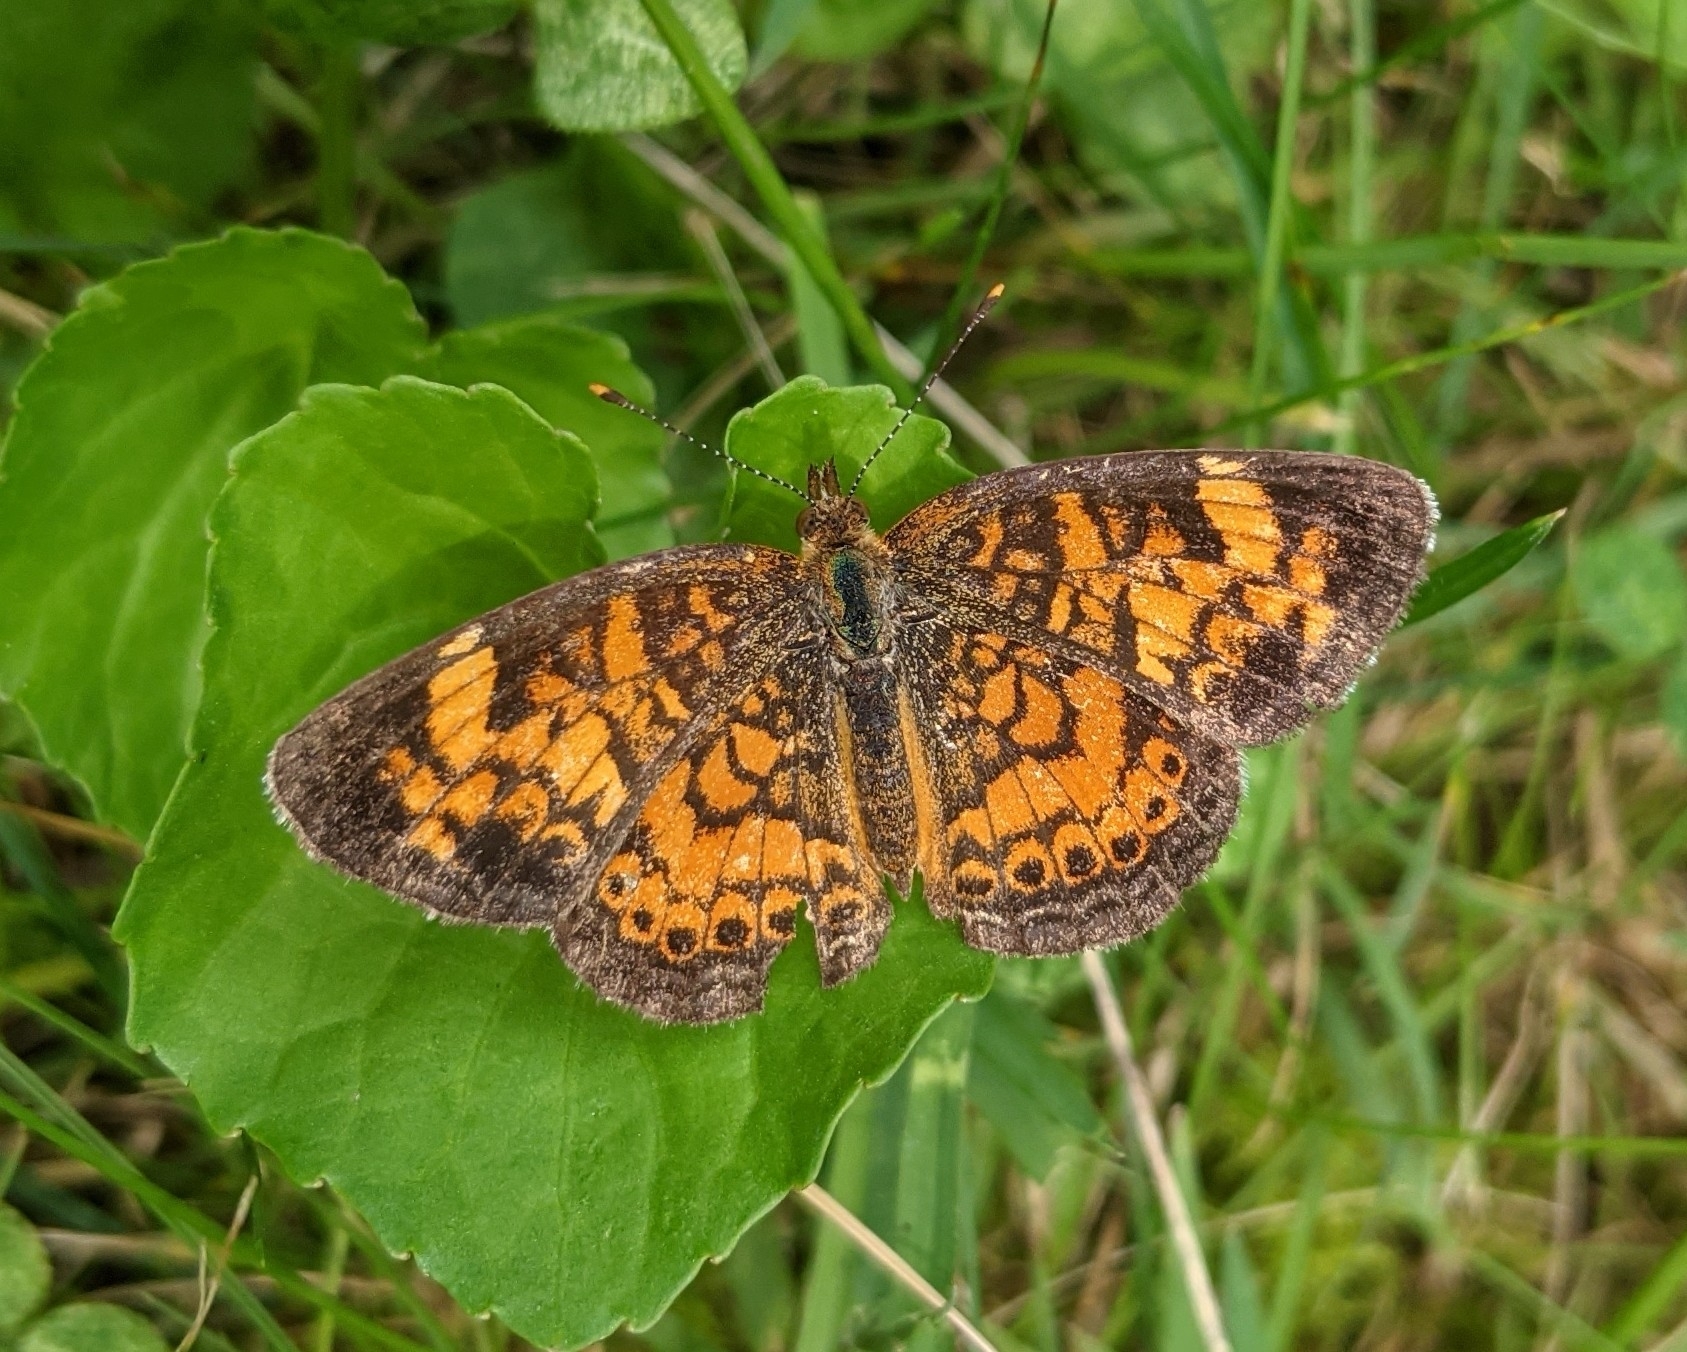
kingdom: Animalia
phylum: Arthropoda
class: Insecta
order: Lepidoptera
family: Nymphalidae
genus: Phyciodes
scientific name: Phyciodes tharos
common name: Pearl crescent
